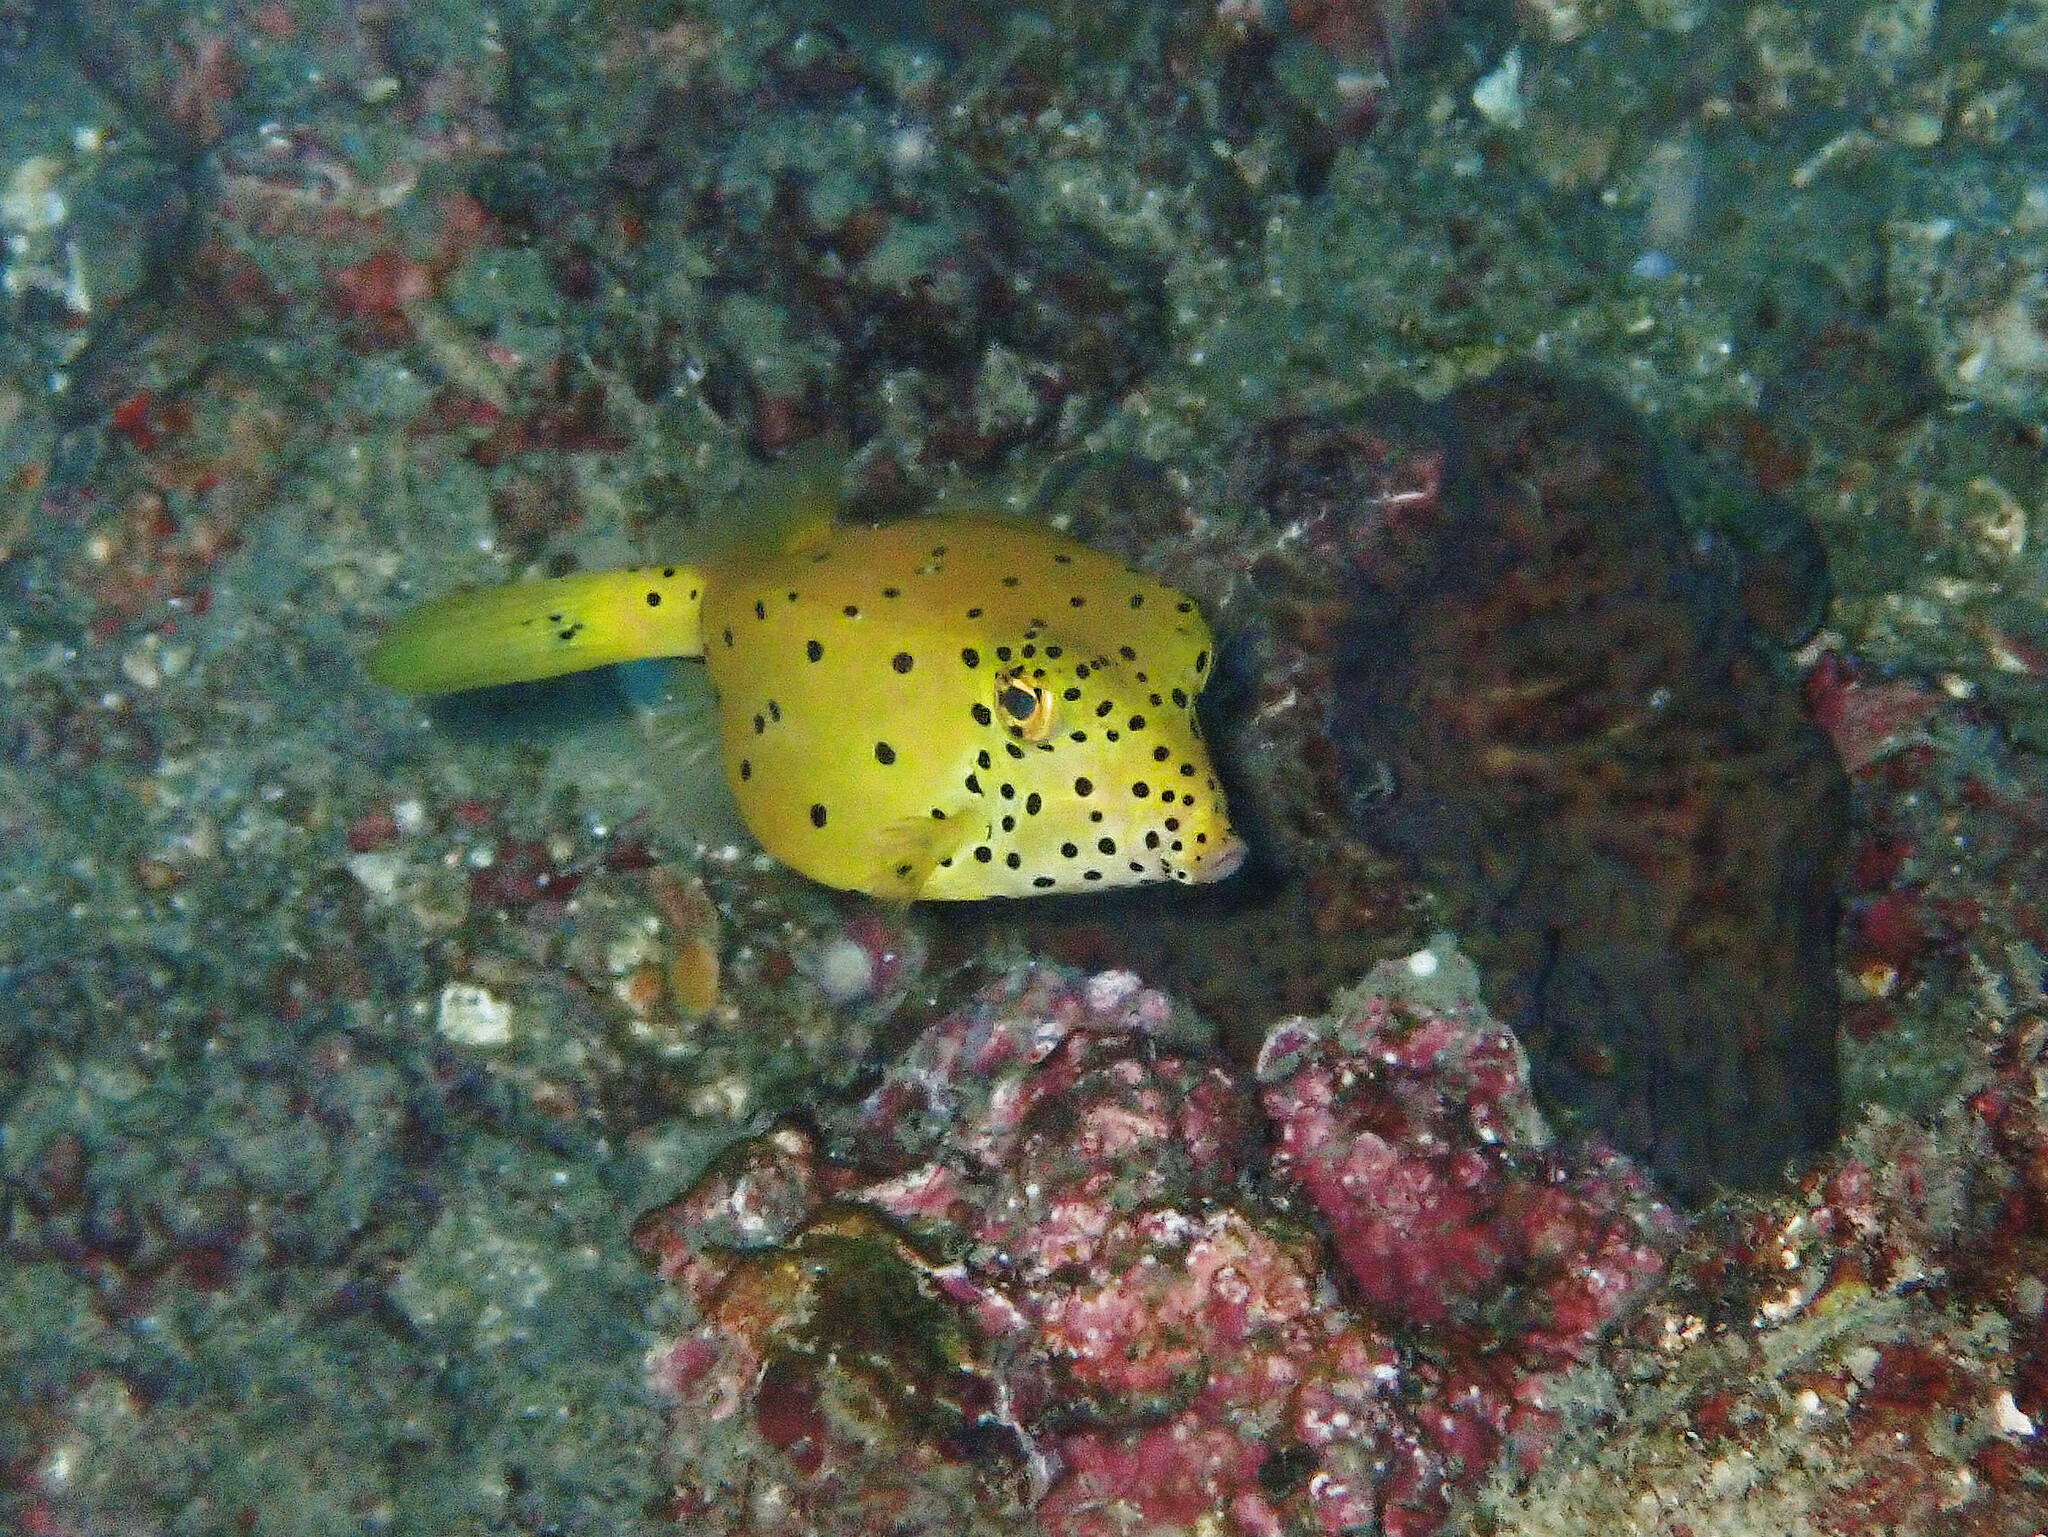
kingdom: Animalia
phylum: Chordata
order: Tetraodontiformes
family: Ostraciidae
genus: Ostracion
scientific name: Ostracion cubicus
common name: Cube trunkfish
